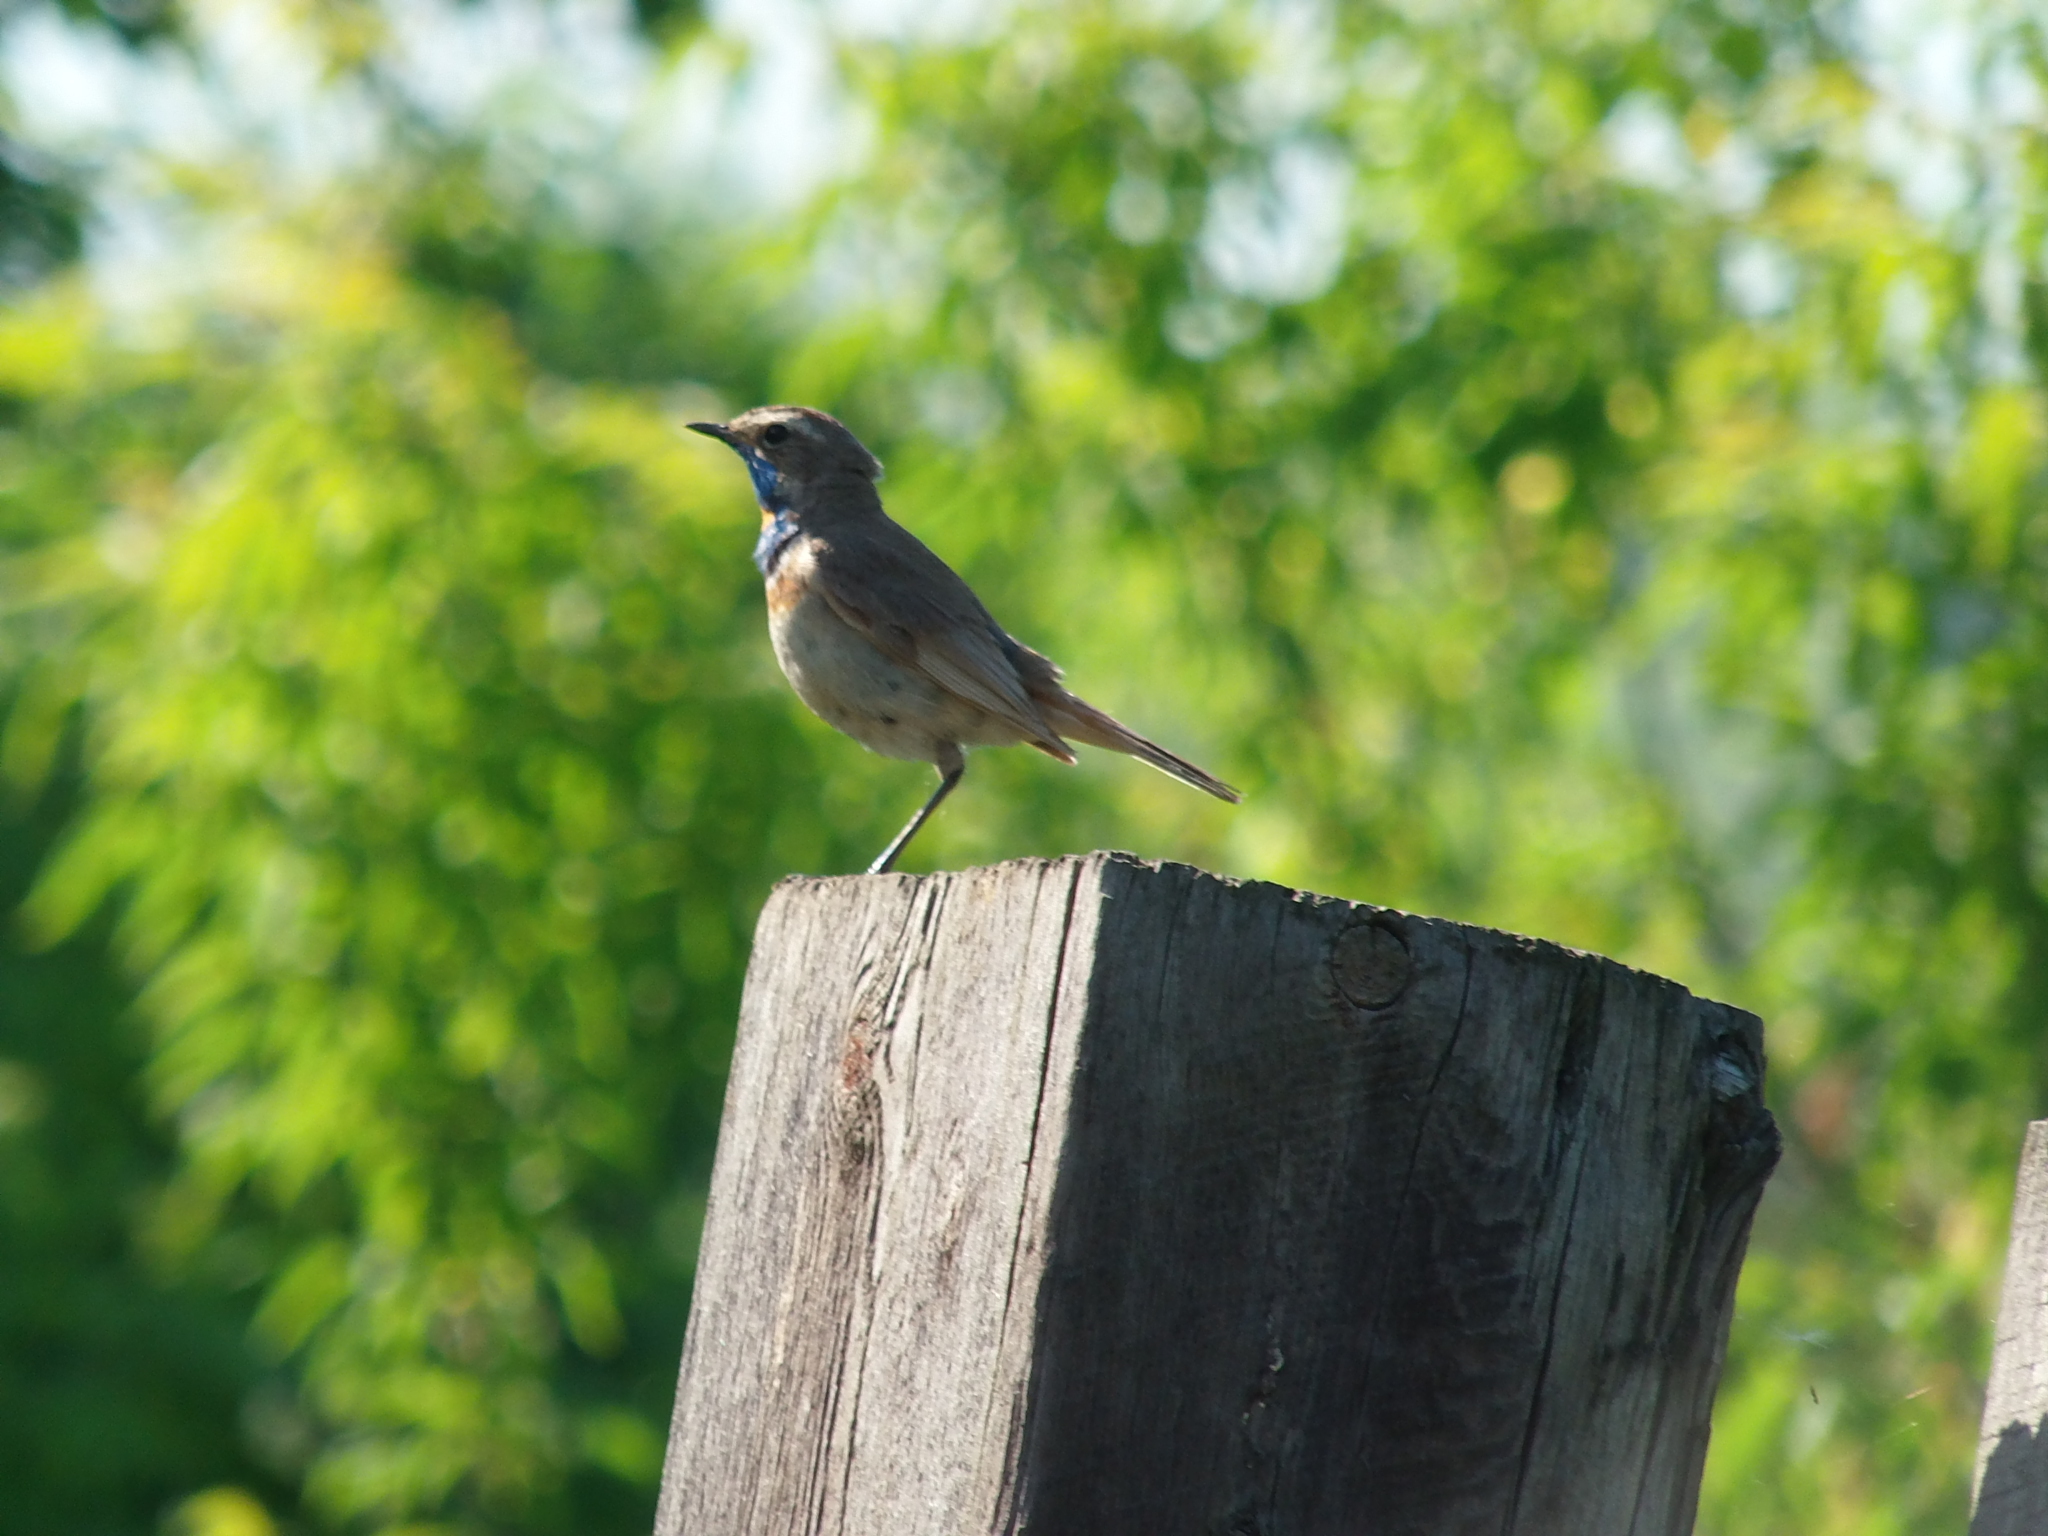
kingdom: Animalia
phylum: Chordata
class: Aves
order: Passeriformes
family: Muscicapidae
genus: Luscinia
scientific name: Luscinia svecica
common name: Bluethroat
